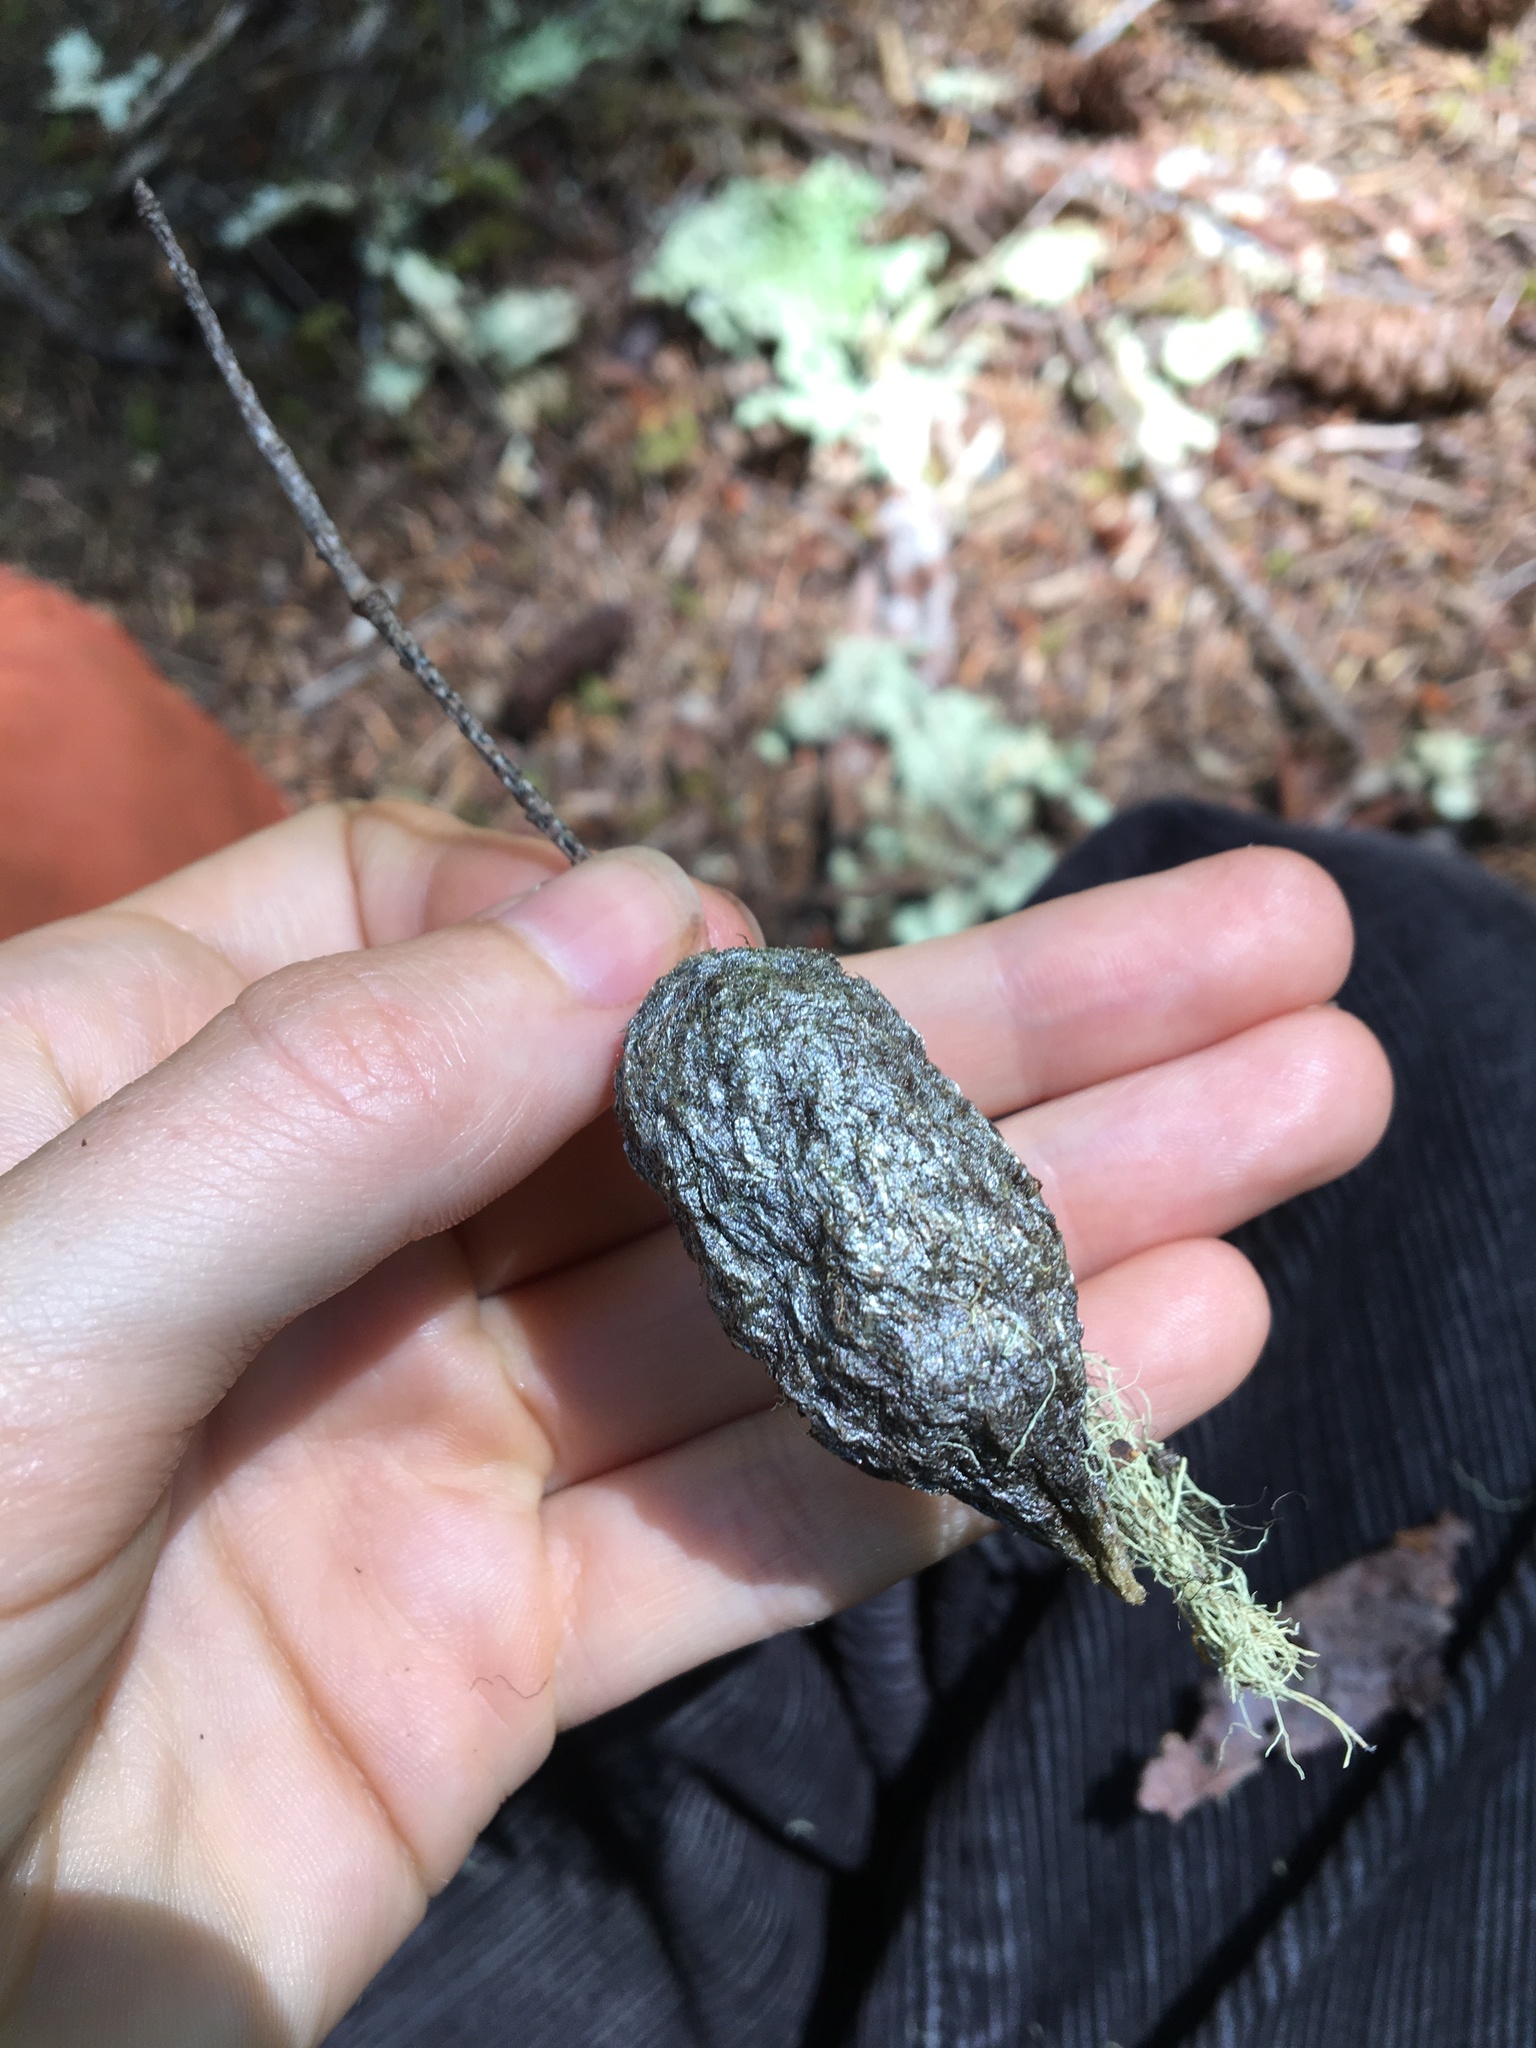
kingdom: Animalia
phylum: Arthropoda
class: Insecta
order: Lepidoptera
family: Saturniidae
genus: Hyalophora
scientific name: Hyalophora euryalus
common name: Ceanothus silkmoth
